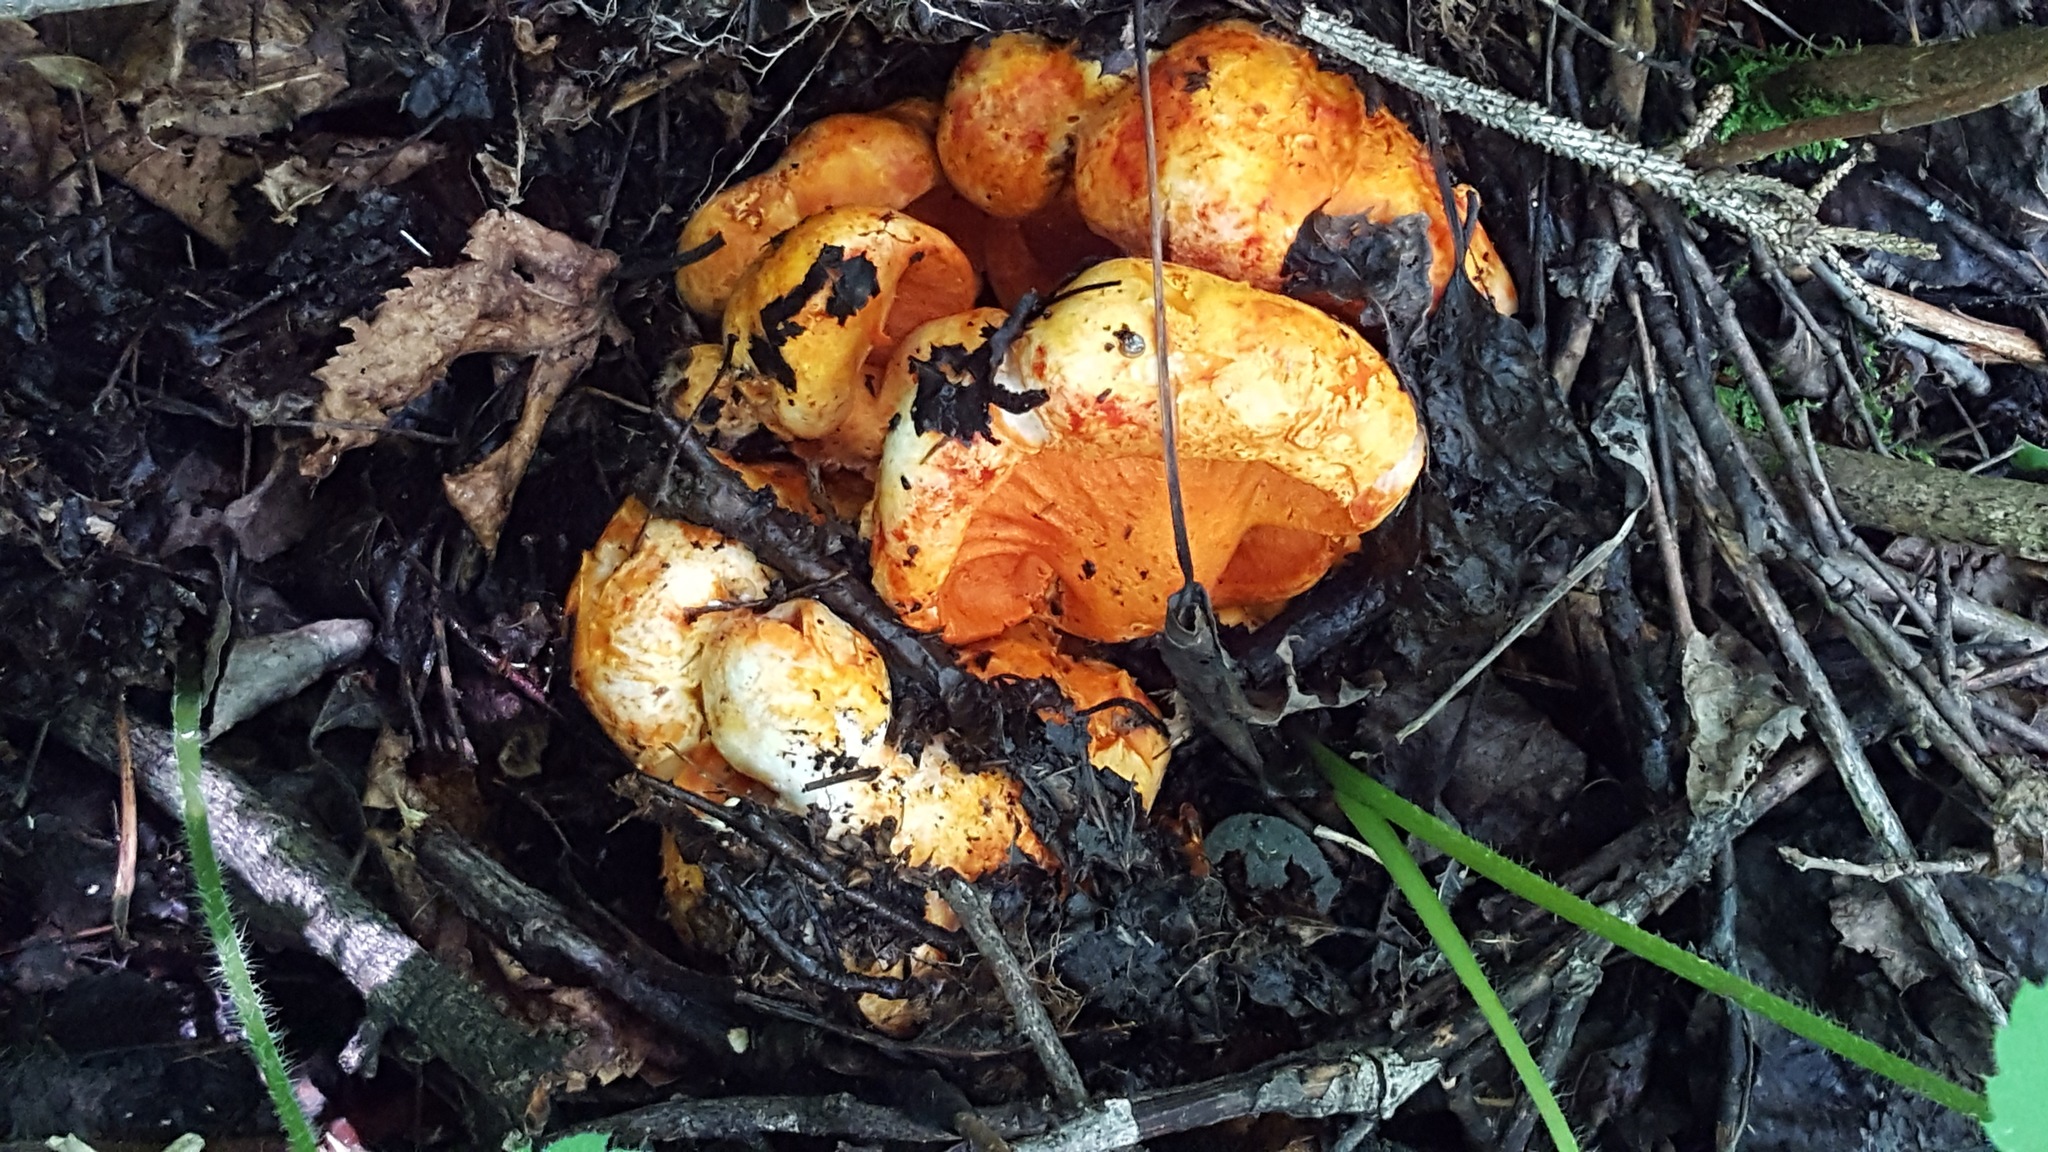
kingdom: Fungi
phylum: Ascomycota
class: Sordariomycetes
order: Hypocreales
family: Hypocreaceae
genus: Hypomyces
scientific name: Hypomyces lactifluorum
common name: Lobster mushroom
